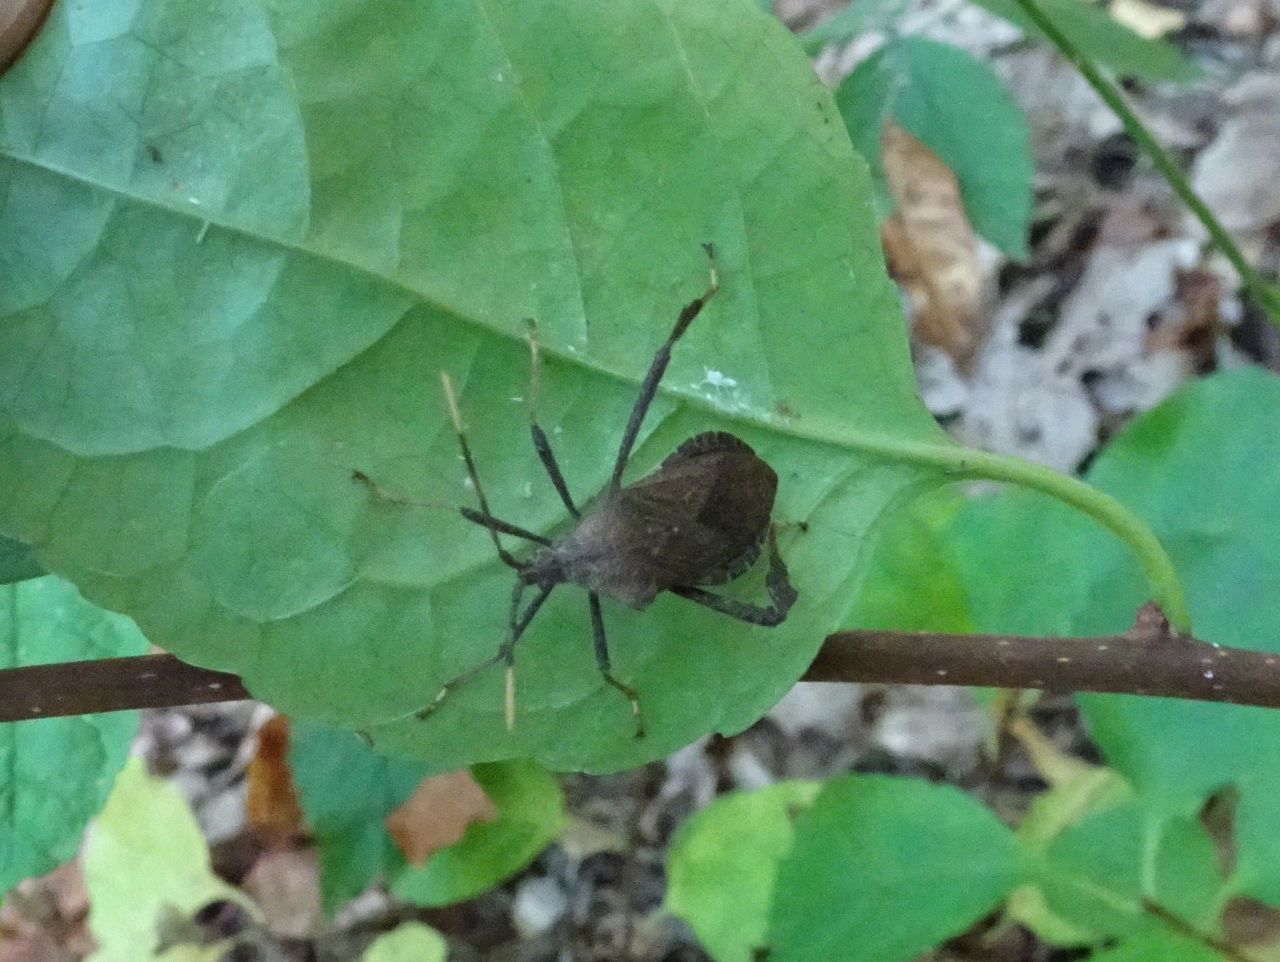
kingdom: Animalia
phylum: Arthropoda
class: Insecta
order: Hemiptera
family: Coreidae
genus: Acanthocephala
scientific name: Acanthocephala terminalis
